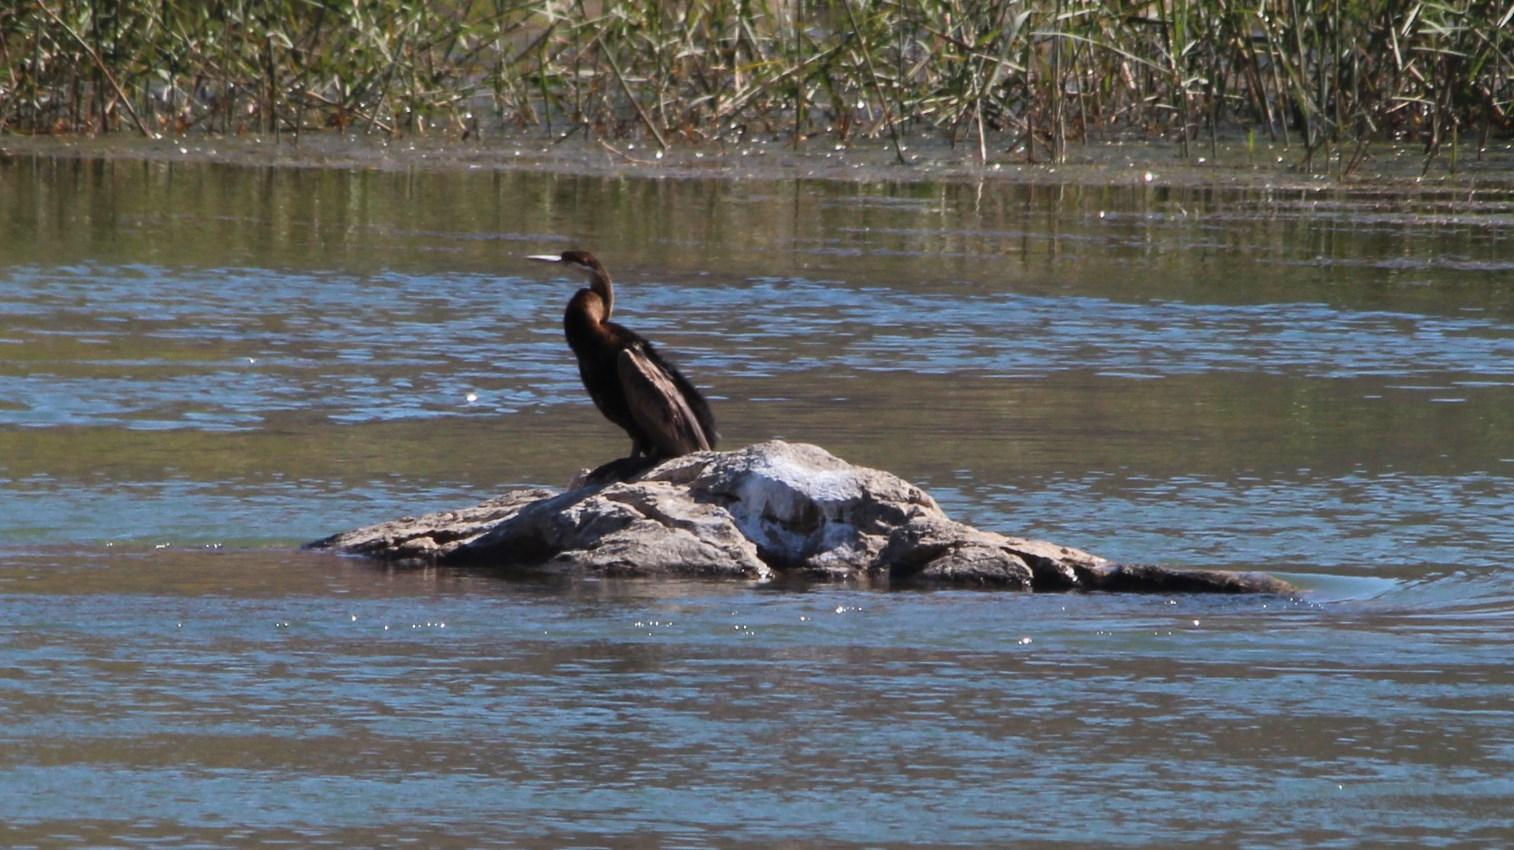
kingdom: Animalia
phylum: Chordata
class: Aves
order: Suliformes
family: Anhingidae
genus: Anhinga
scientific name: Anhinga rufa
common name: African darter
